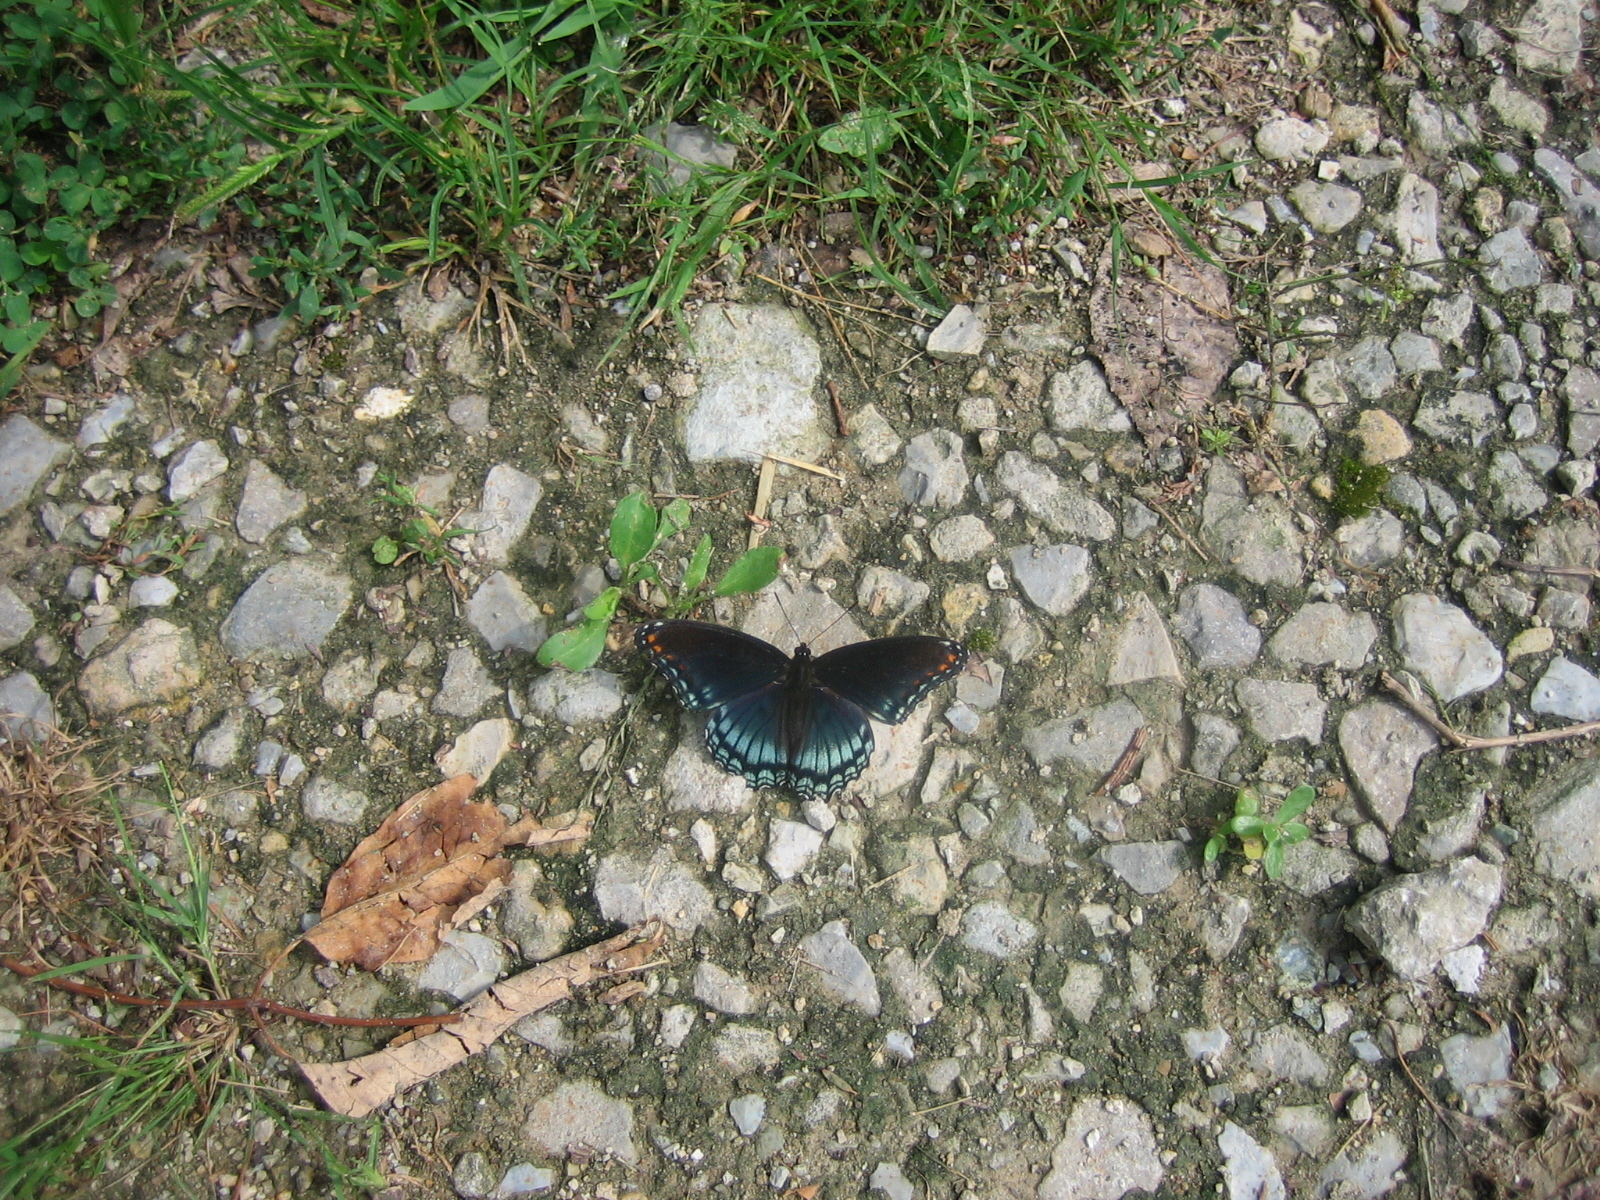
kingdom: Animalia
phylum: Arthropoda
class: Insecta
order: Lepidoptera
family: Nymphalidae
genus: Limenitis
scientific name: Limenitis astyanax
